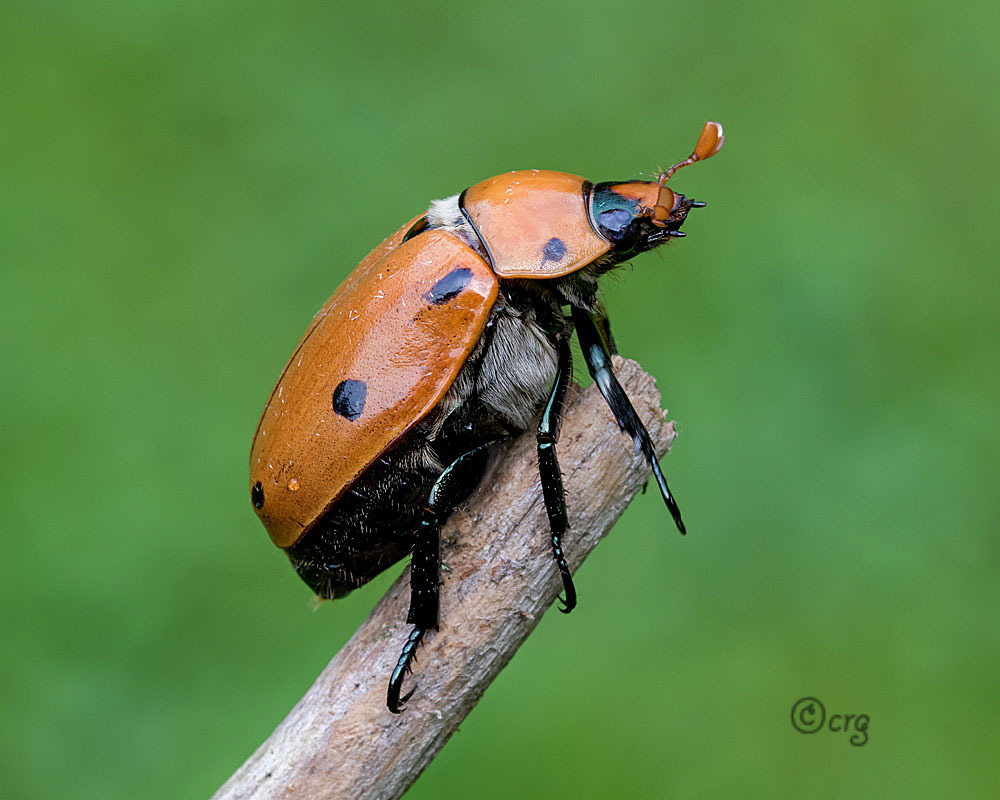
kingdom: Animalia
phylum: Arthropoda
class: Insecta
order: Coleoptera
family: Scarabaeidae
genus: Pelidnota
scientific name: Pelidnota punctata
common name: Grapevine beetle
